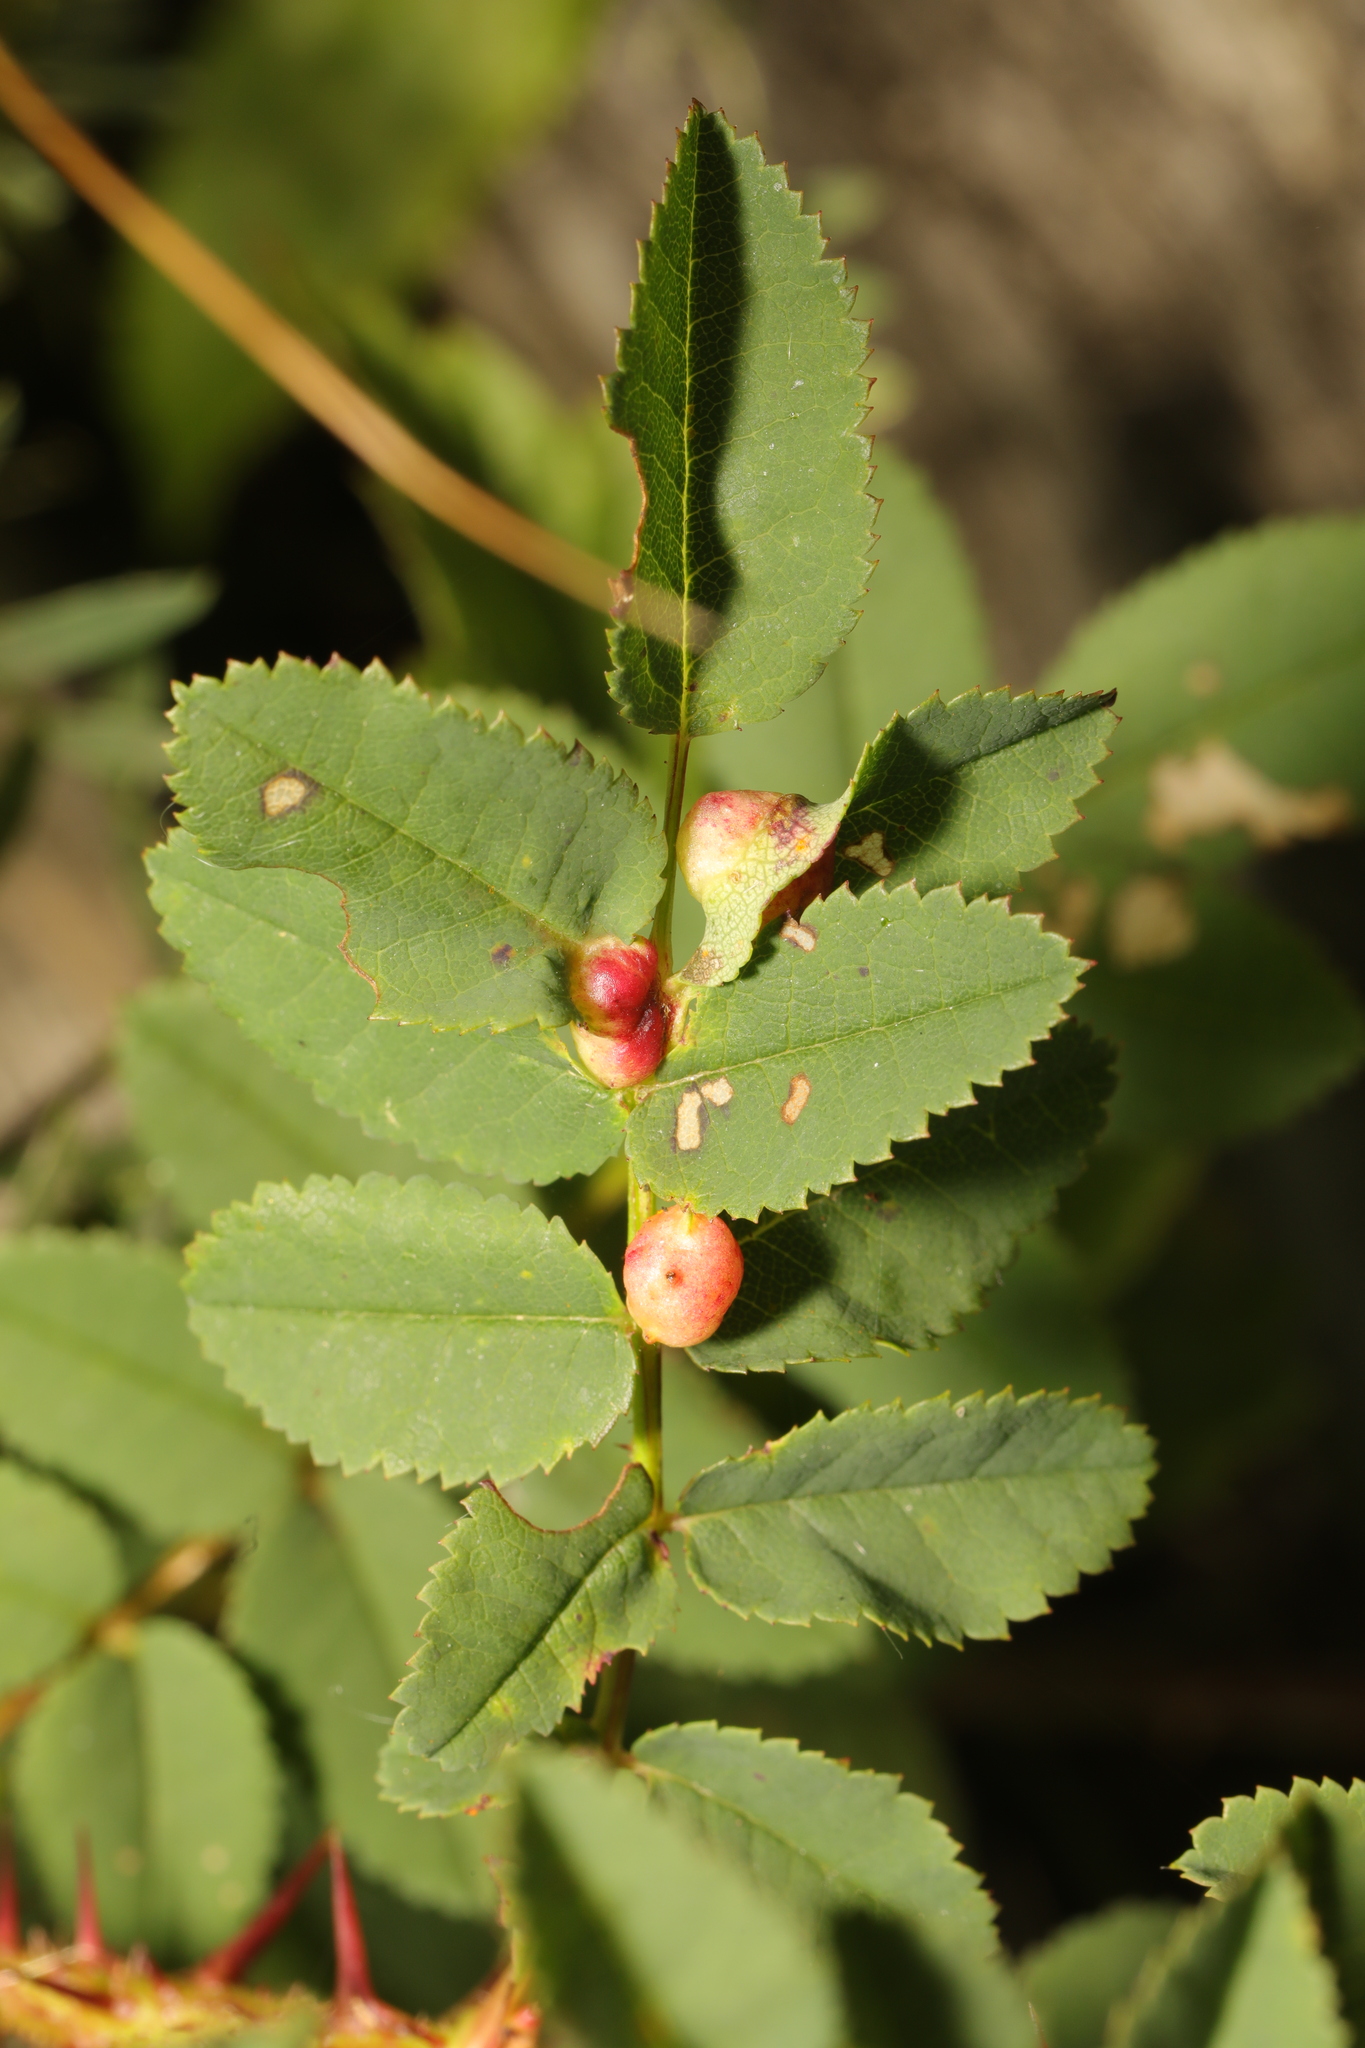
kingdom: Animalia
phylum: Arthropoda
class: Insecta
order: Hymenoptera
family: Cynipidae
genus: Diplolepis
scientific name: Diplolepis spinosissimae
